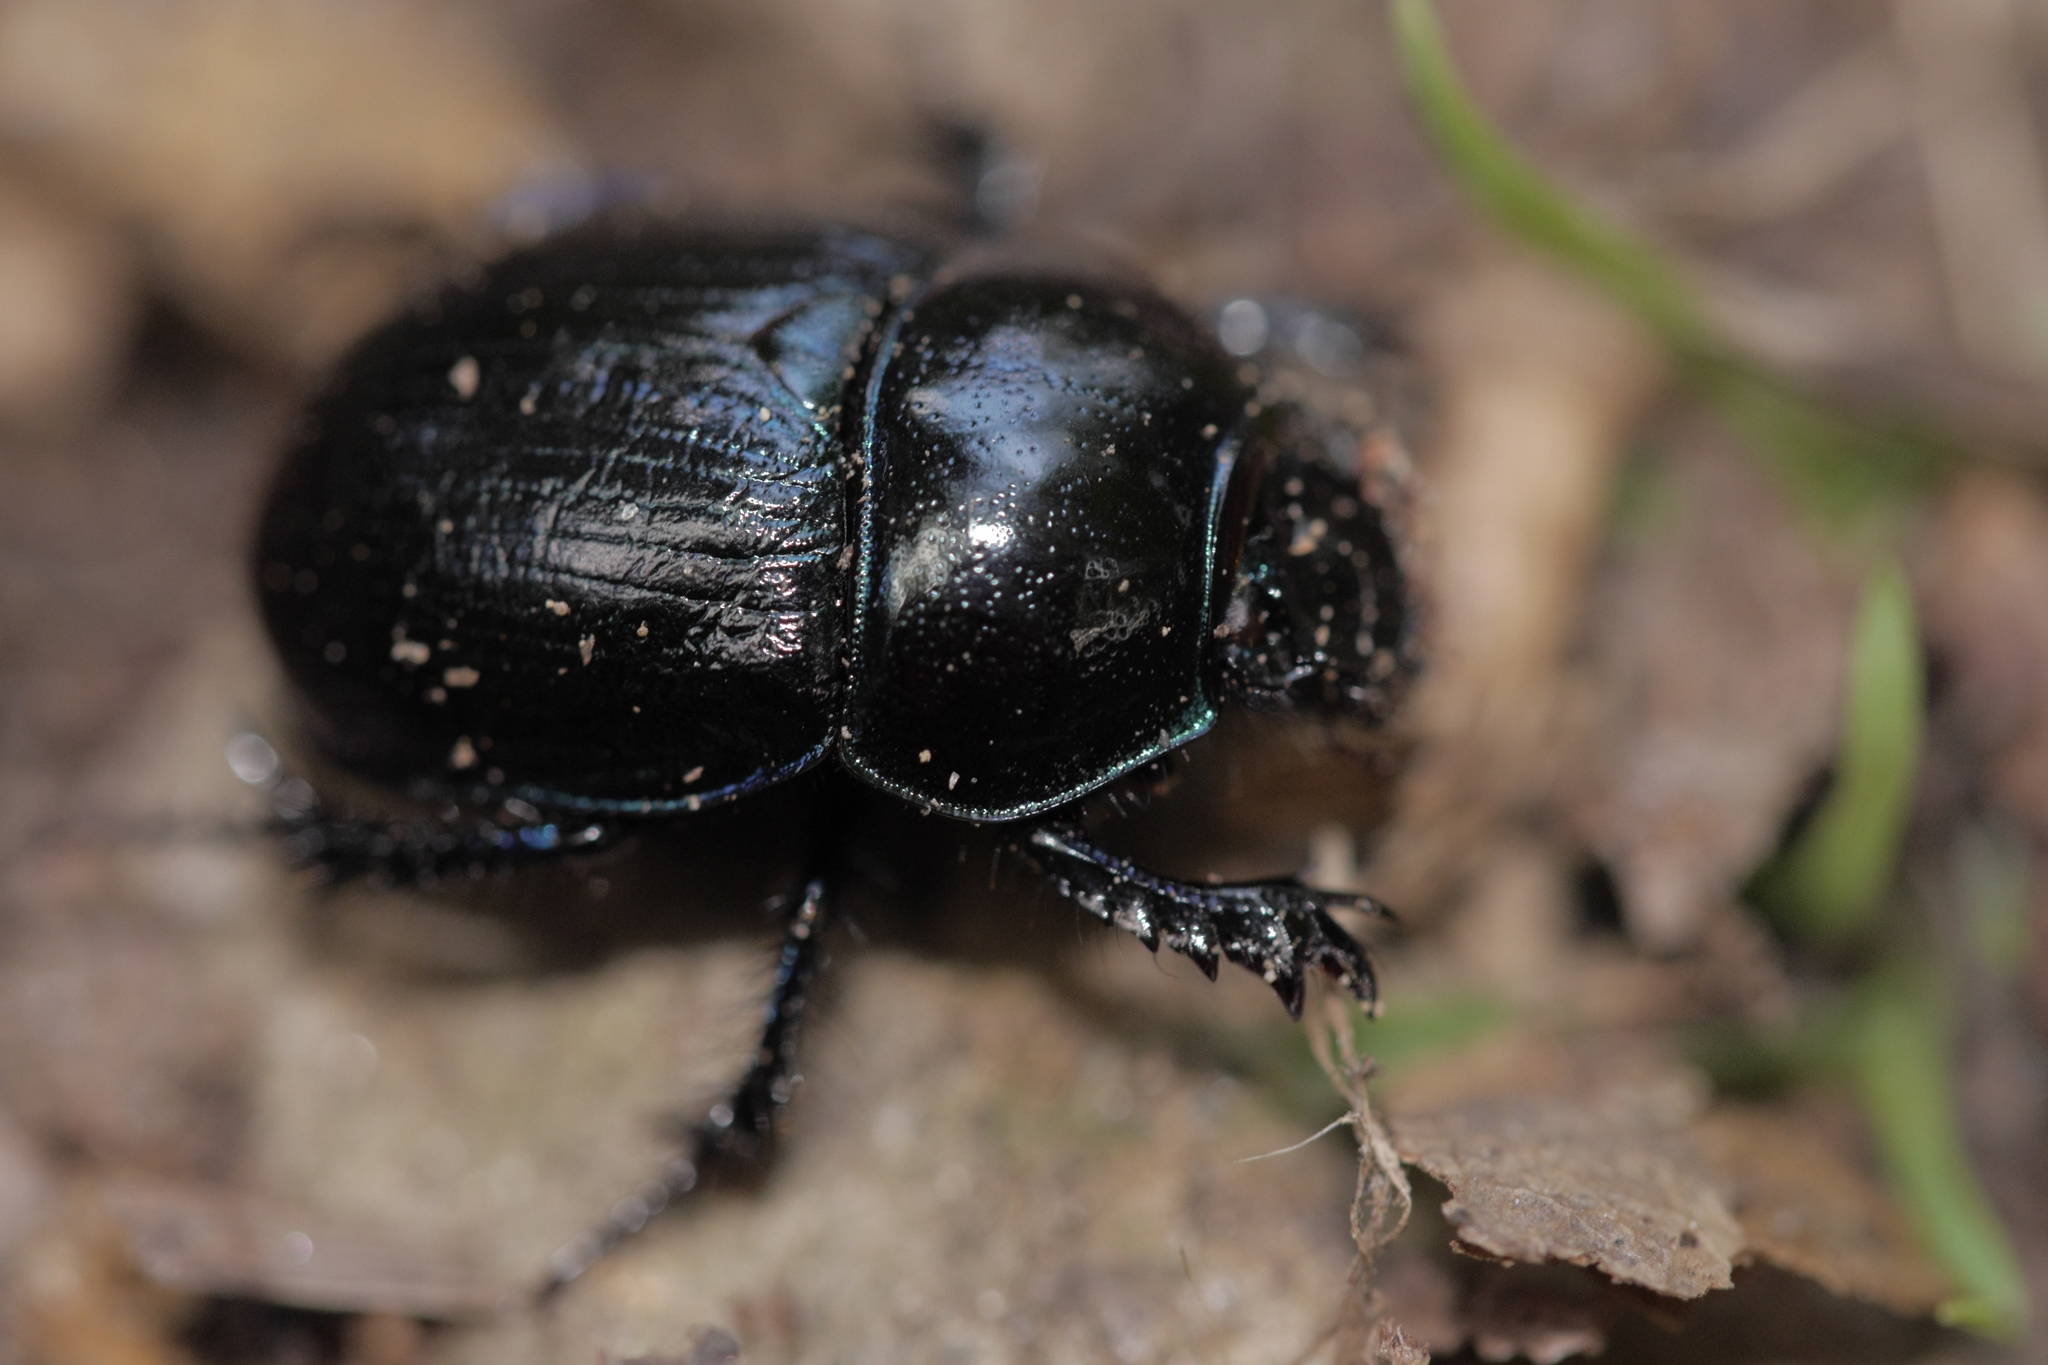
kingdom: Animalia
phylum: Arthropoda
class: Insecta
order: Coleoptera
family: Geotrupidae
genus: Anoplotrupes
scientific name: Anoplotrupes stercorosus
